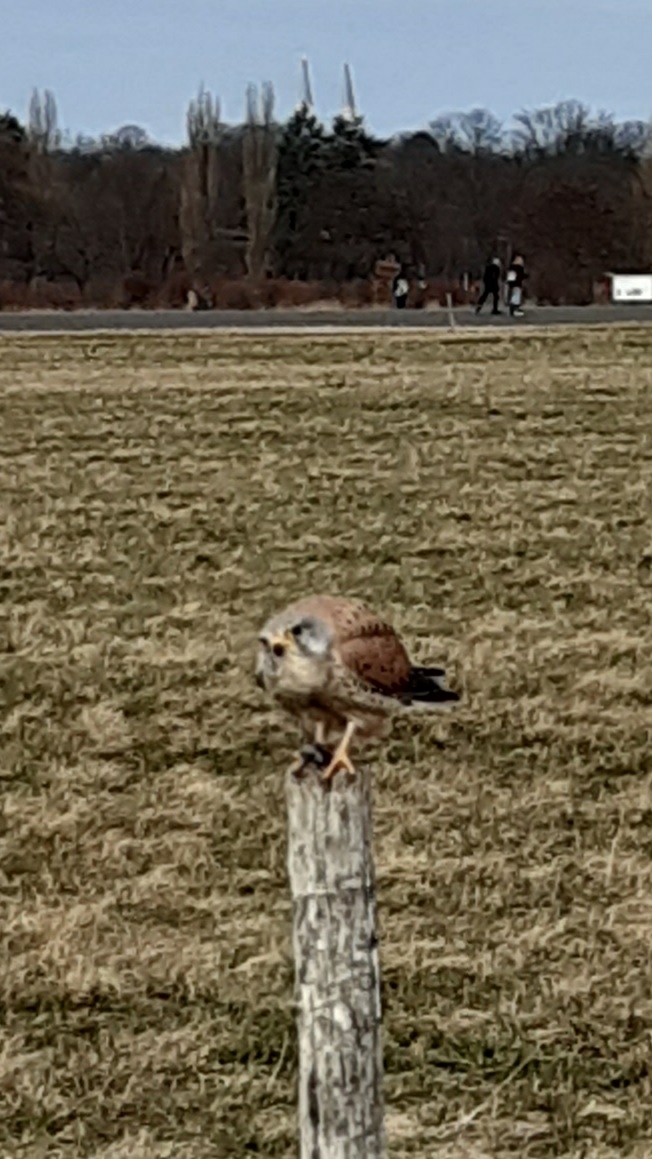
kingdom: Animalia
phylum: Chordata
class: Aves
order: Falconiformes
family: Falconidae
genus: Falco
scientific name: Falco tinnunculus
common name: Common kestrel
